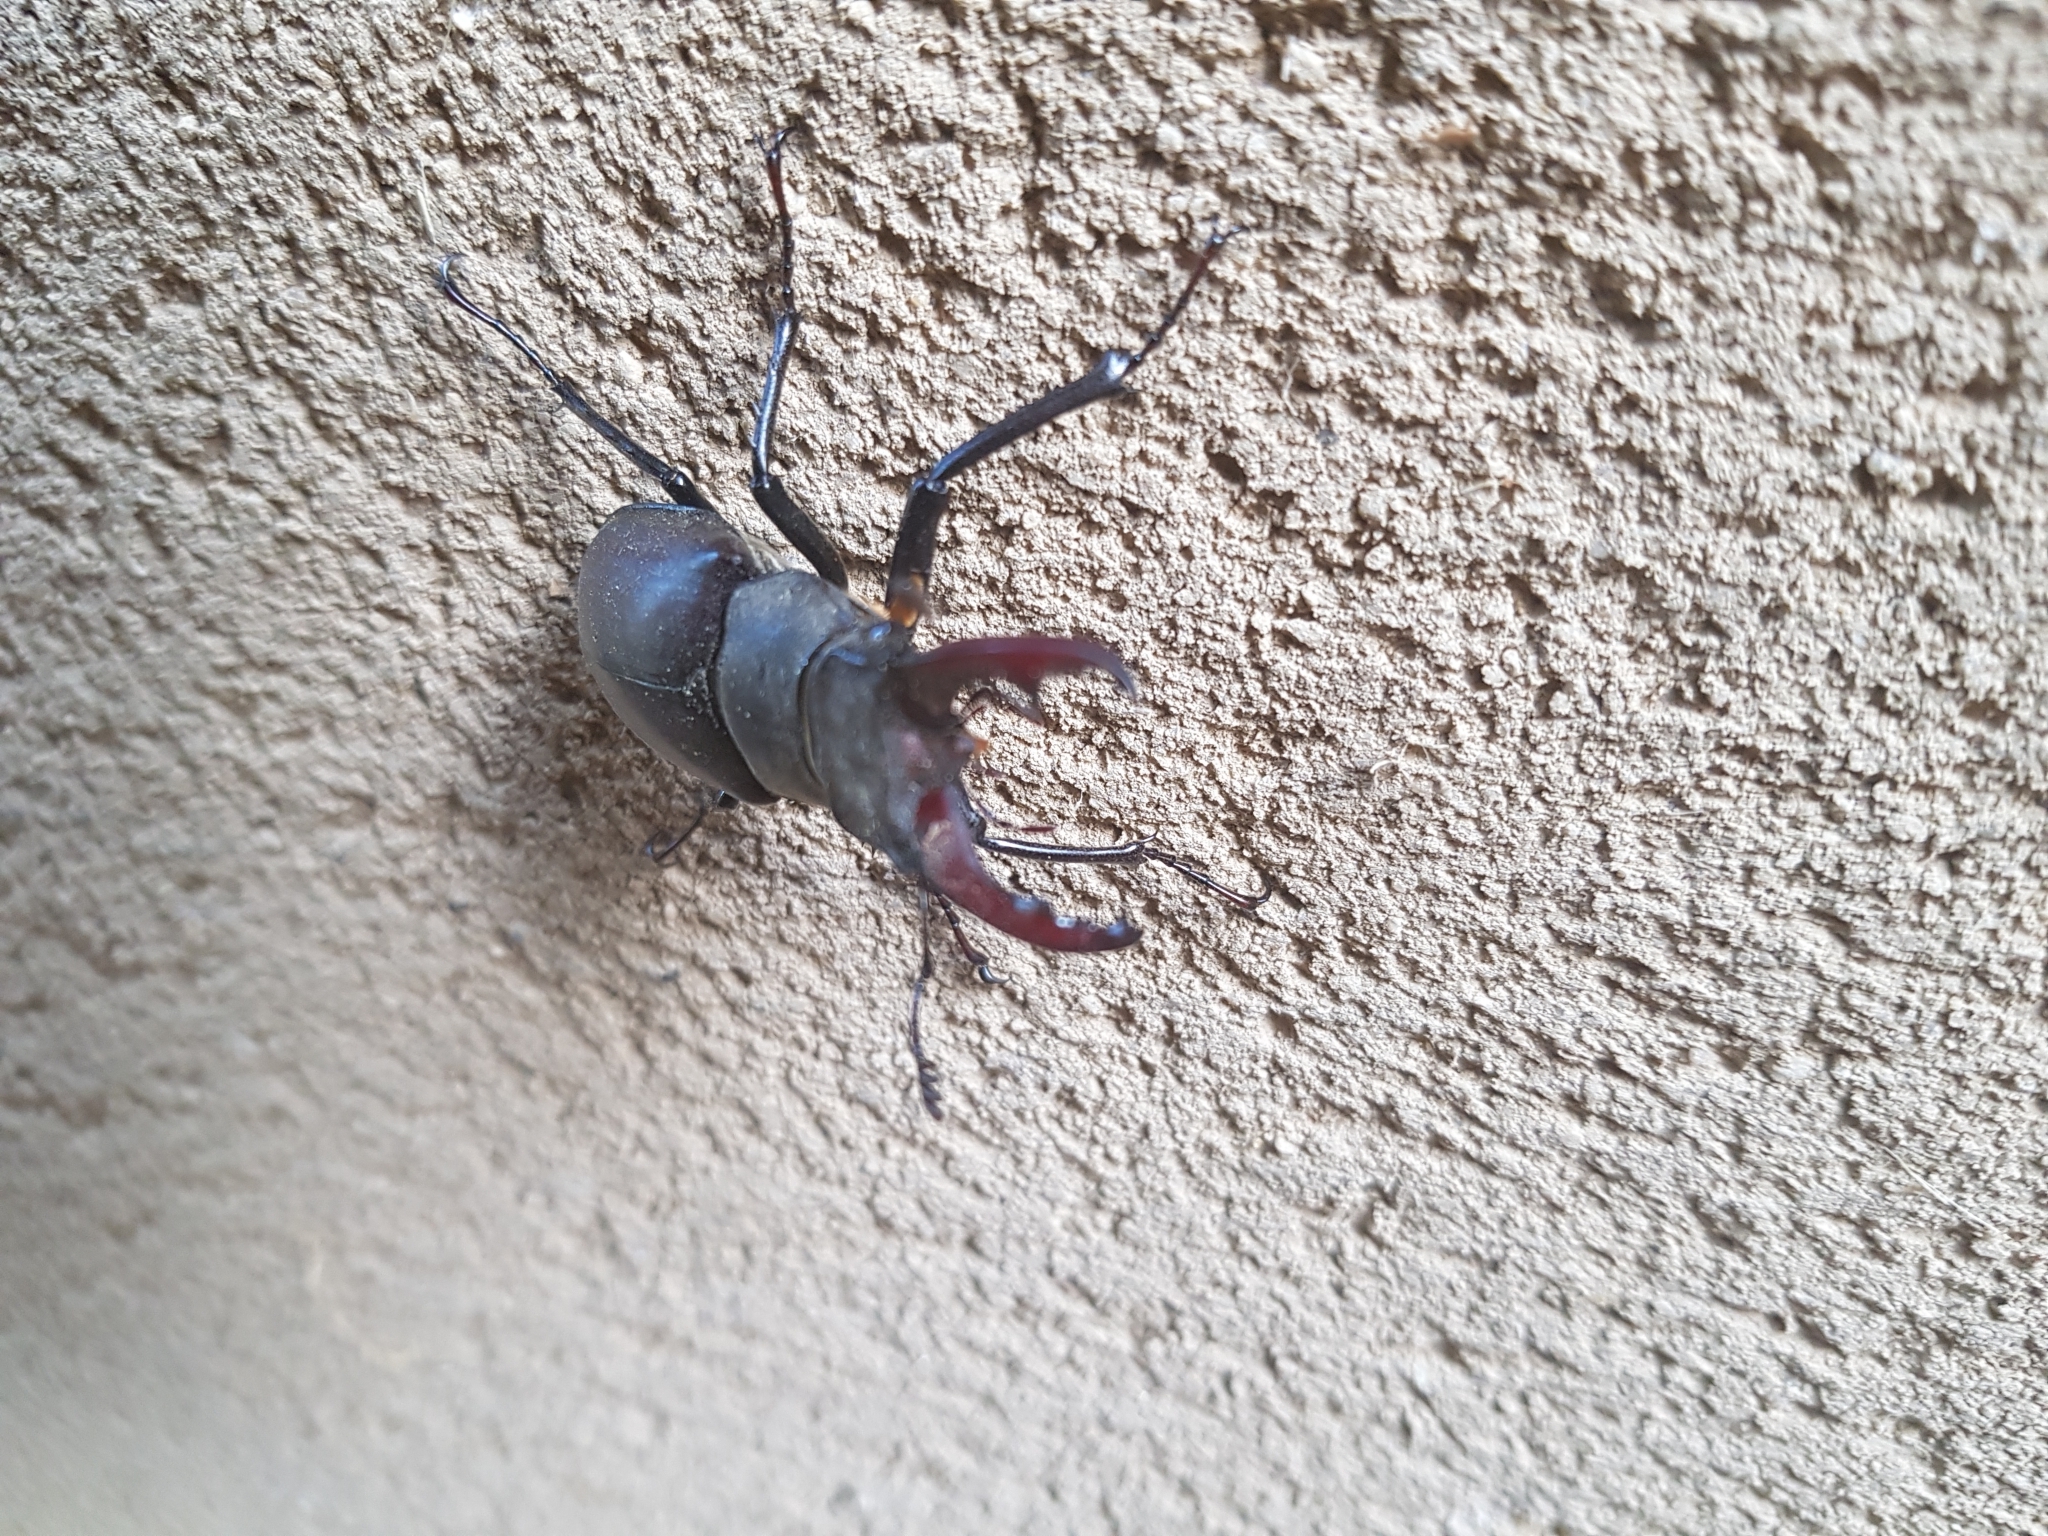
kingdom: Animalia
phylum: Arthropoda
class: Insecta
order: Coleoptera
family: Lucanidae
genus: Lucanus
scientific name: Lucanus cervus
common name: Stag beetle
